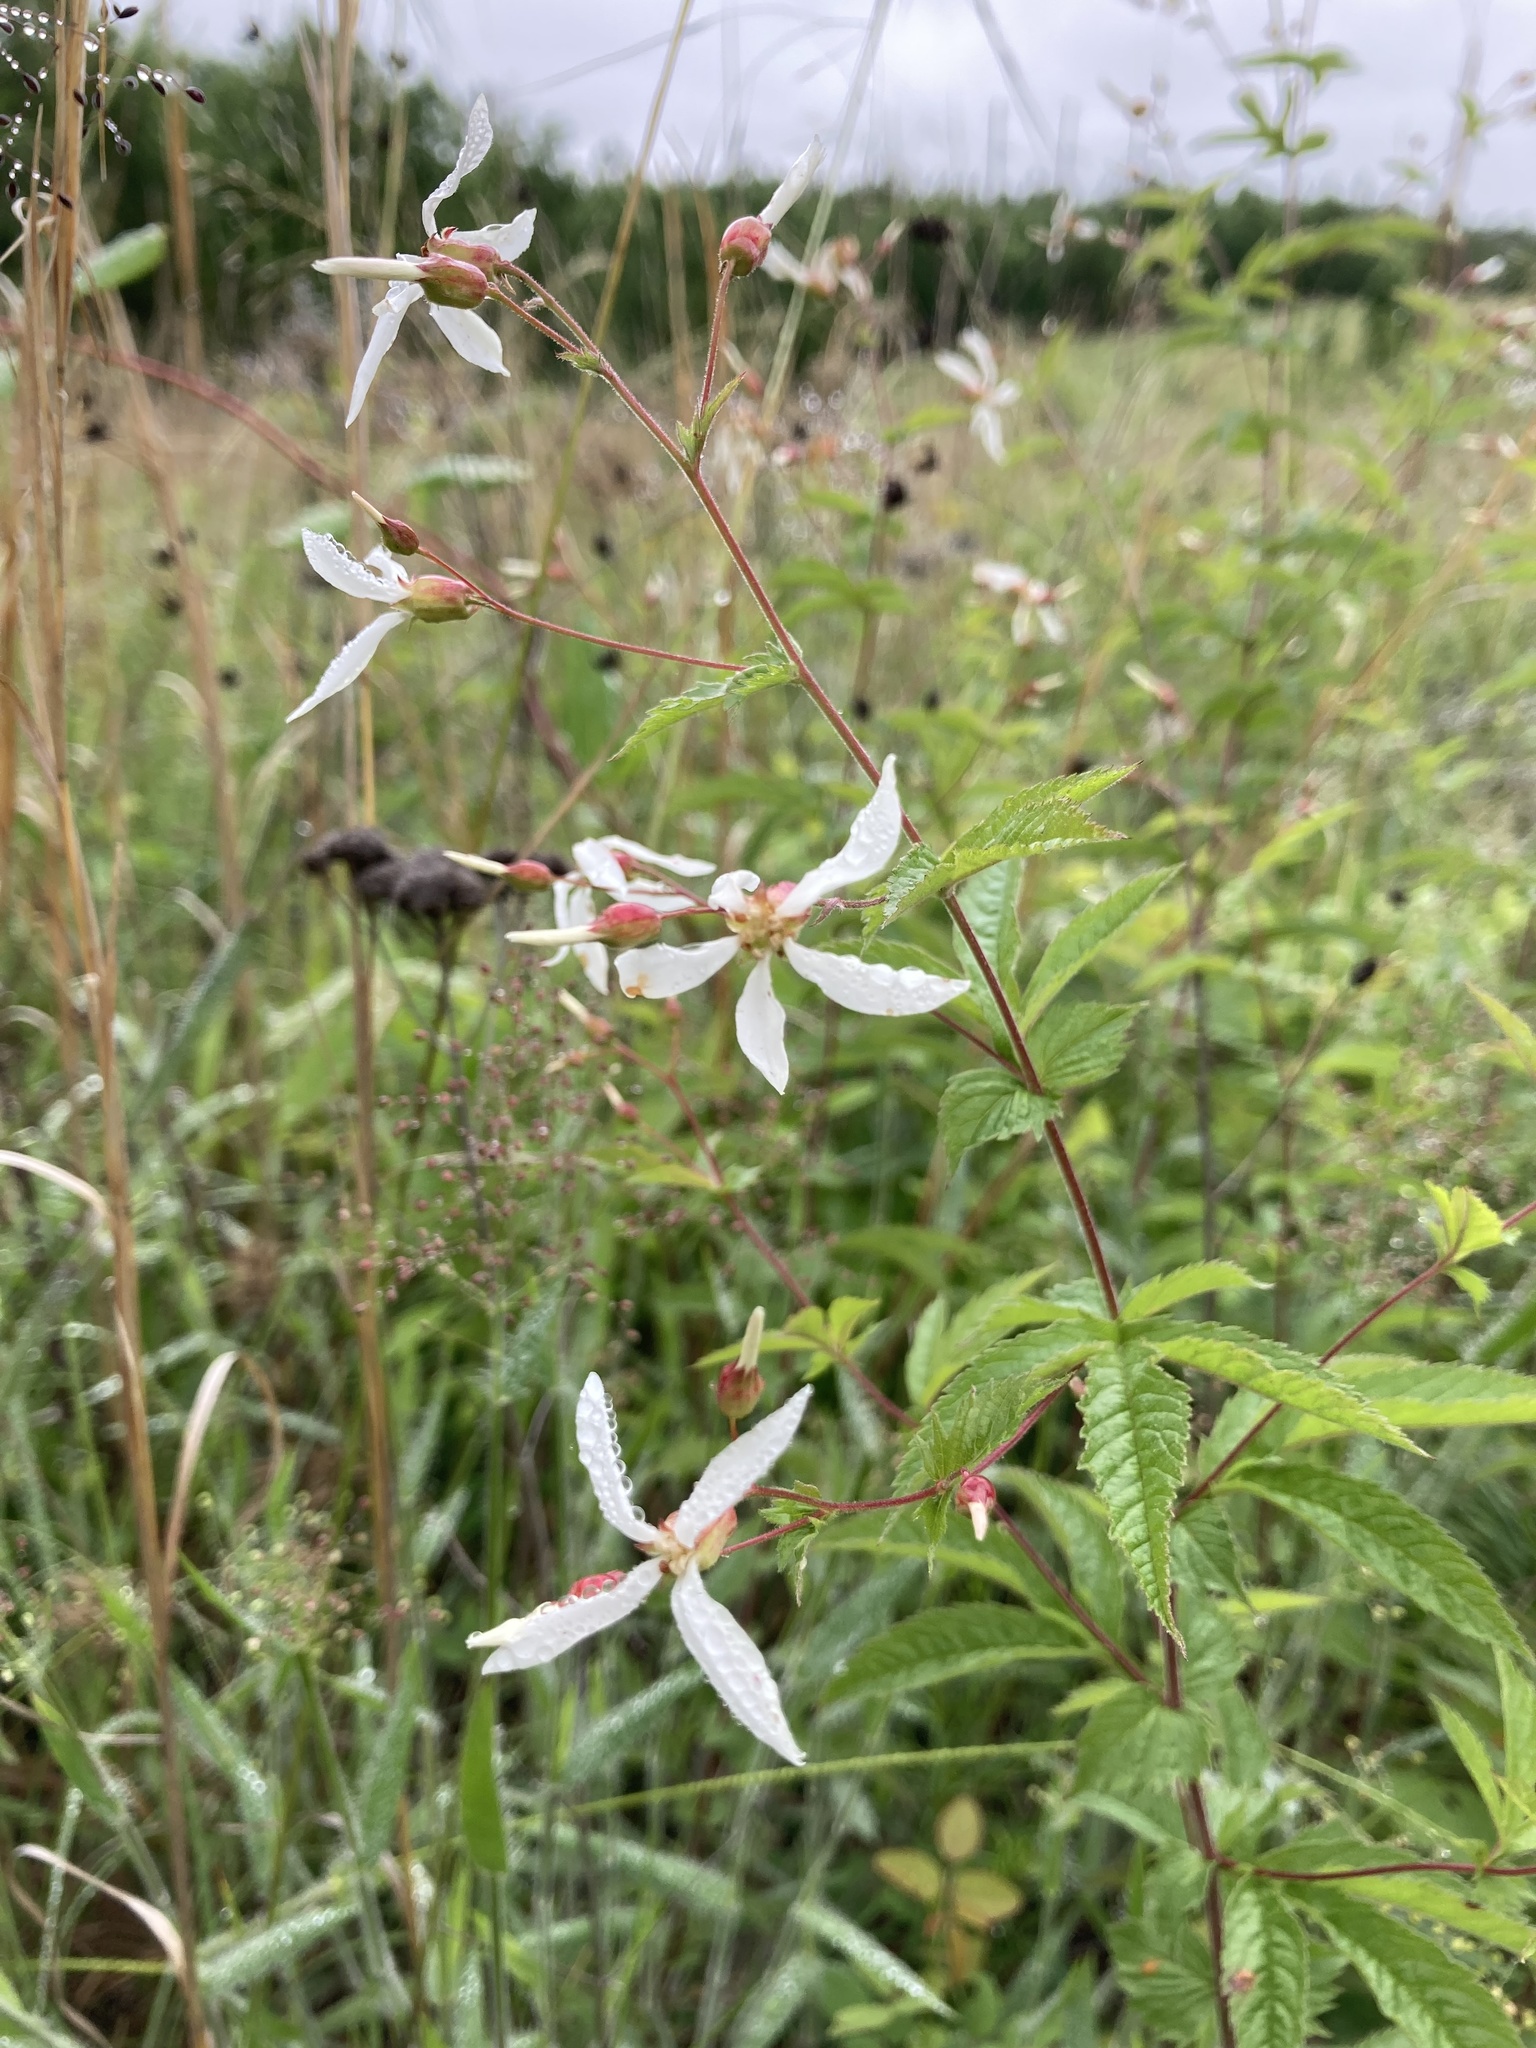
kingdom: Plantae
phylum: Tracheophyta
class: Magnoliopsida
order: Rosales
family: Rosaceae
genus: Gillenia
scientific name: Gillenia stipulata
